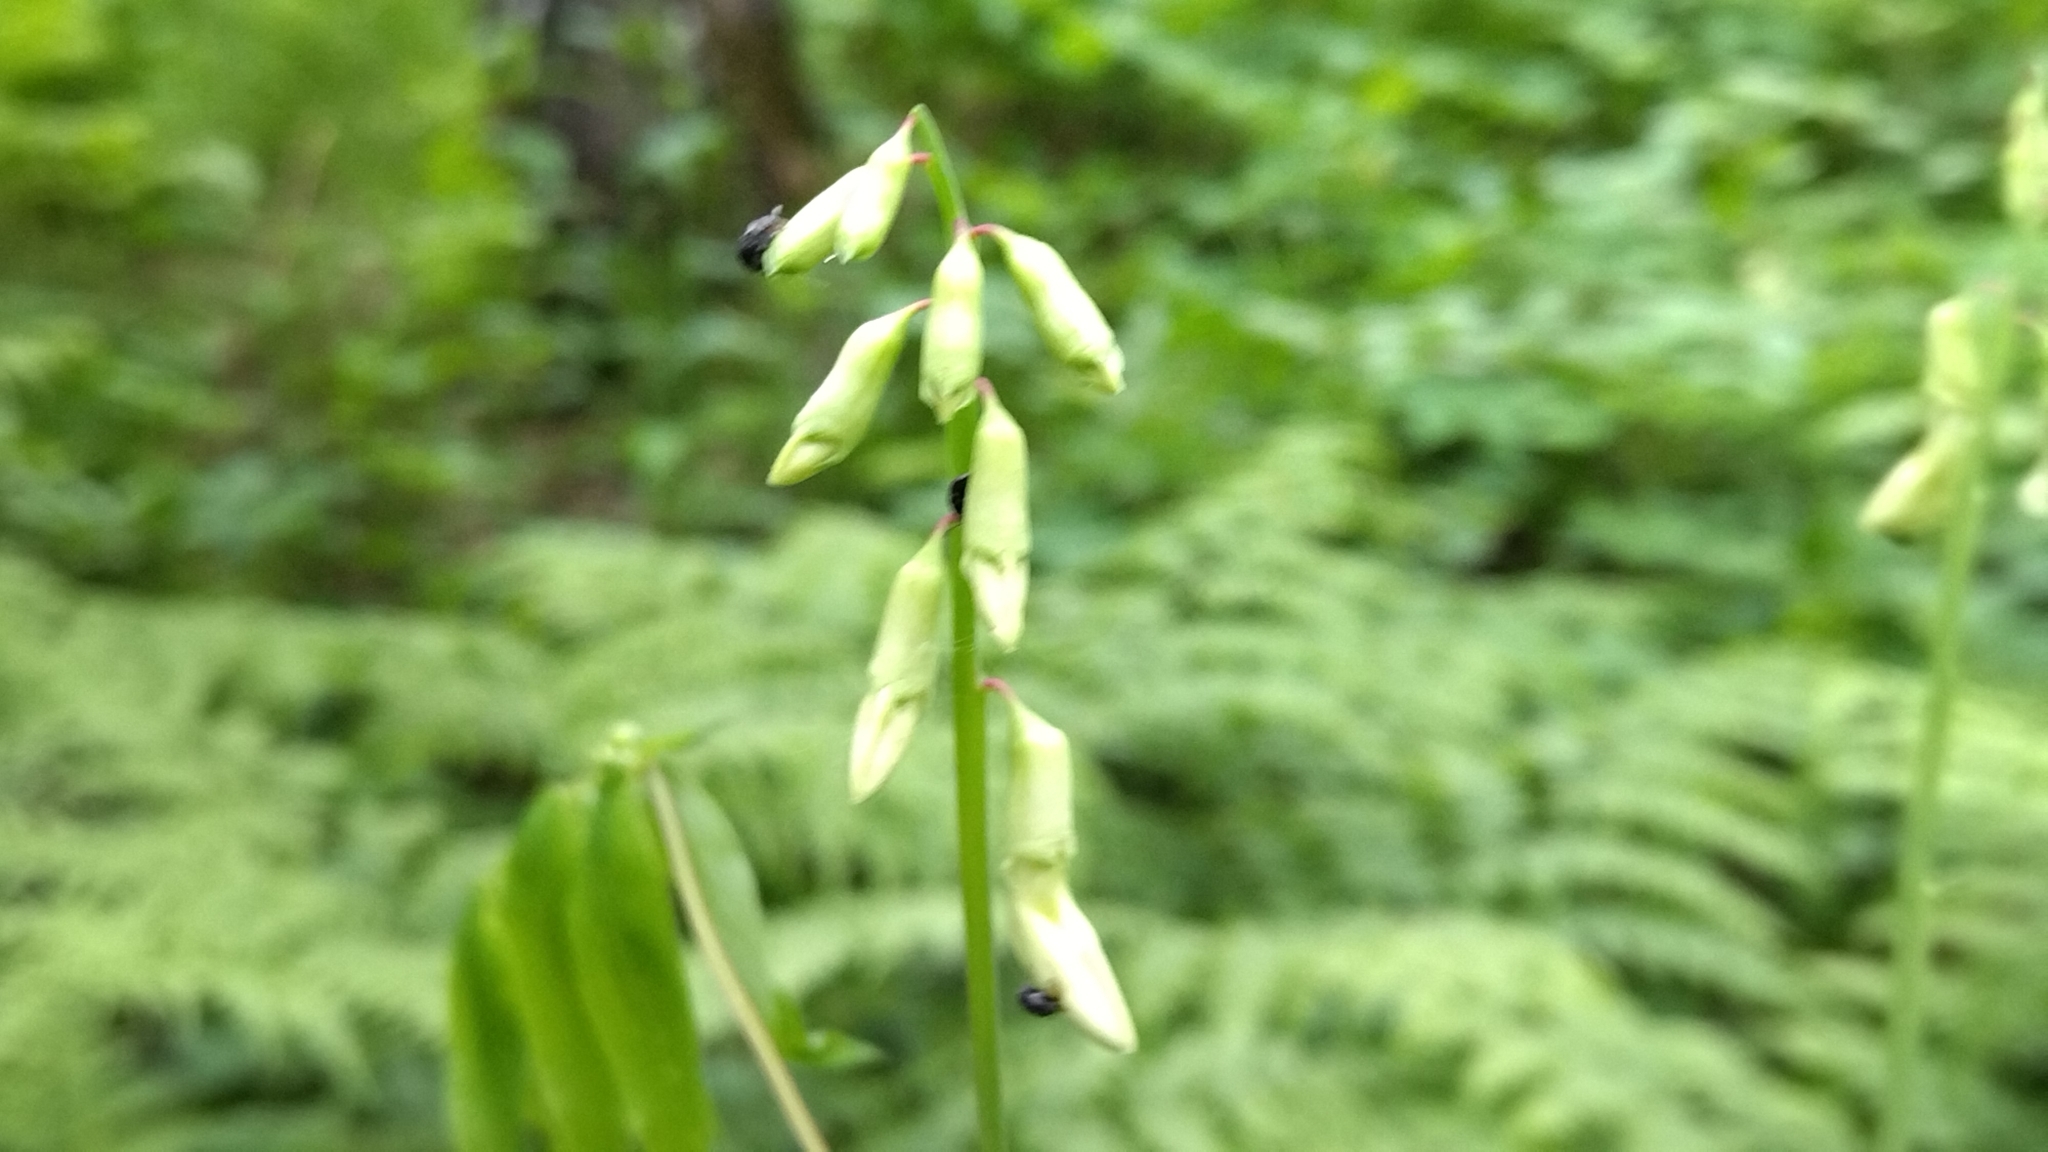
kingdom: Plantae
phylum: Tracheophyta
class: Magnoliopsida
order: Fabales
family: Fabaceae
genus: Lathyrus
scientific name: Lathyrus gmelinii
